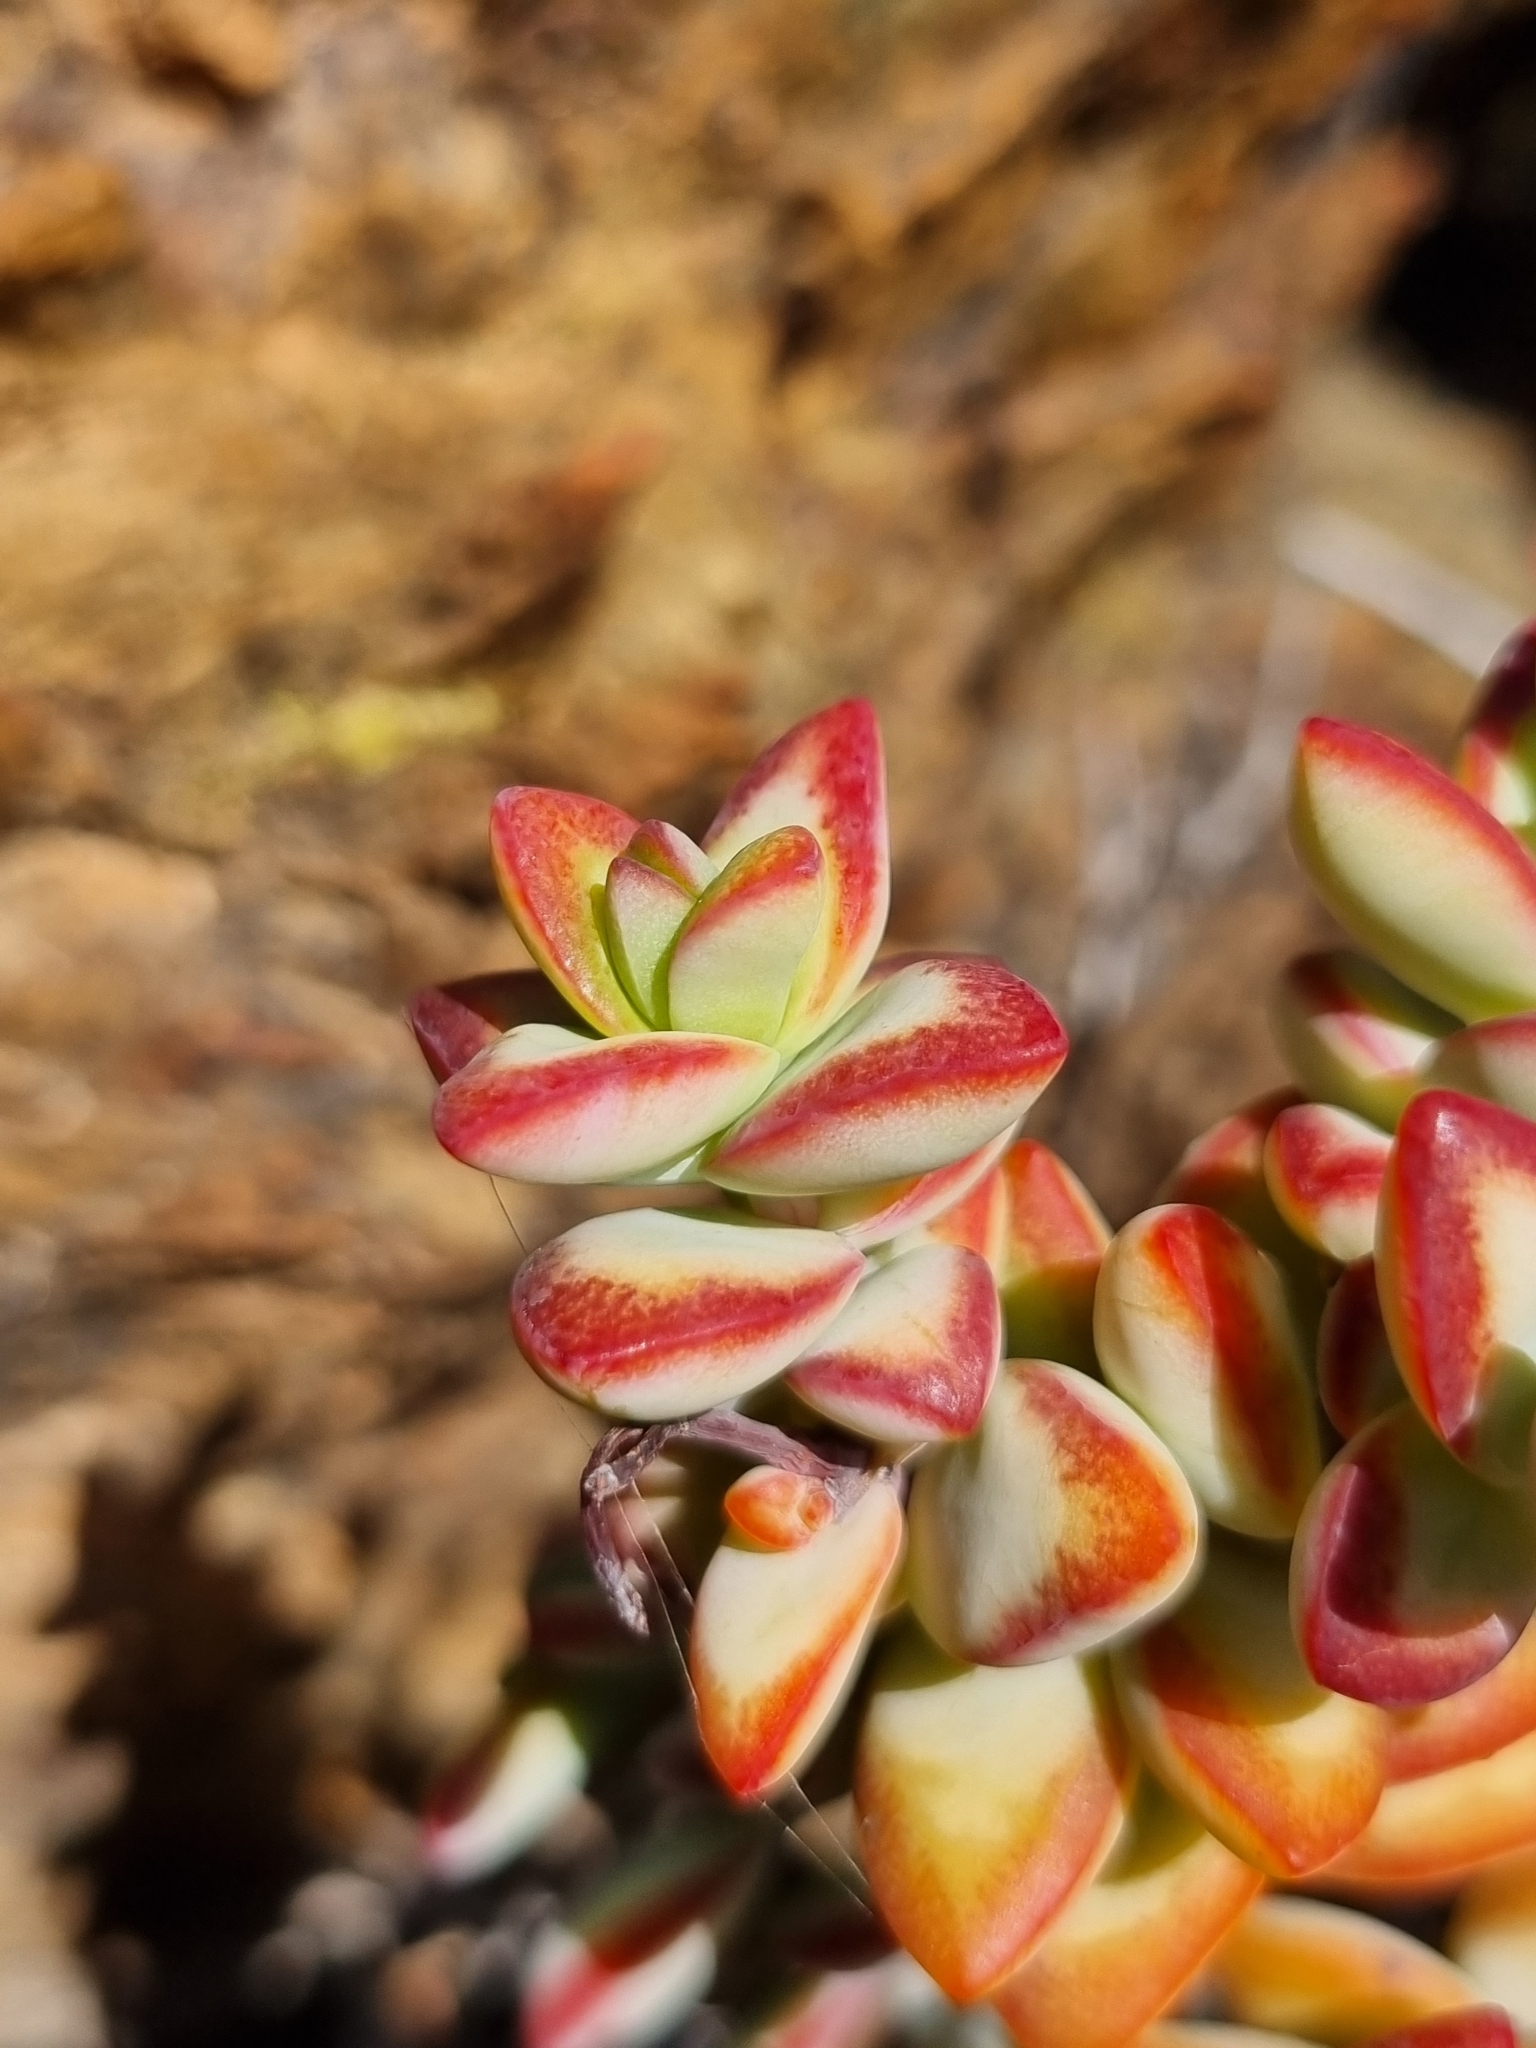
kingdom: Plantae
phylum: Tracheophyta
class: Magnoliopsida
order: Saxifragales
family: Crassulaceae
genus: Crassula
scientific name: Crassula rupestris
